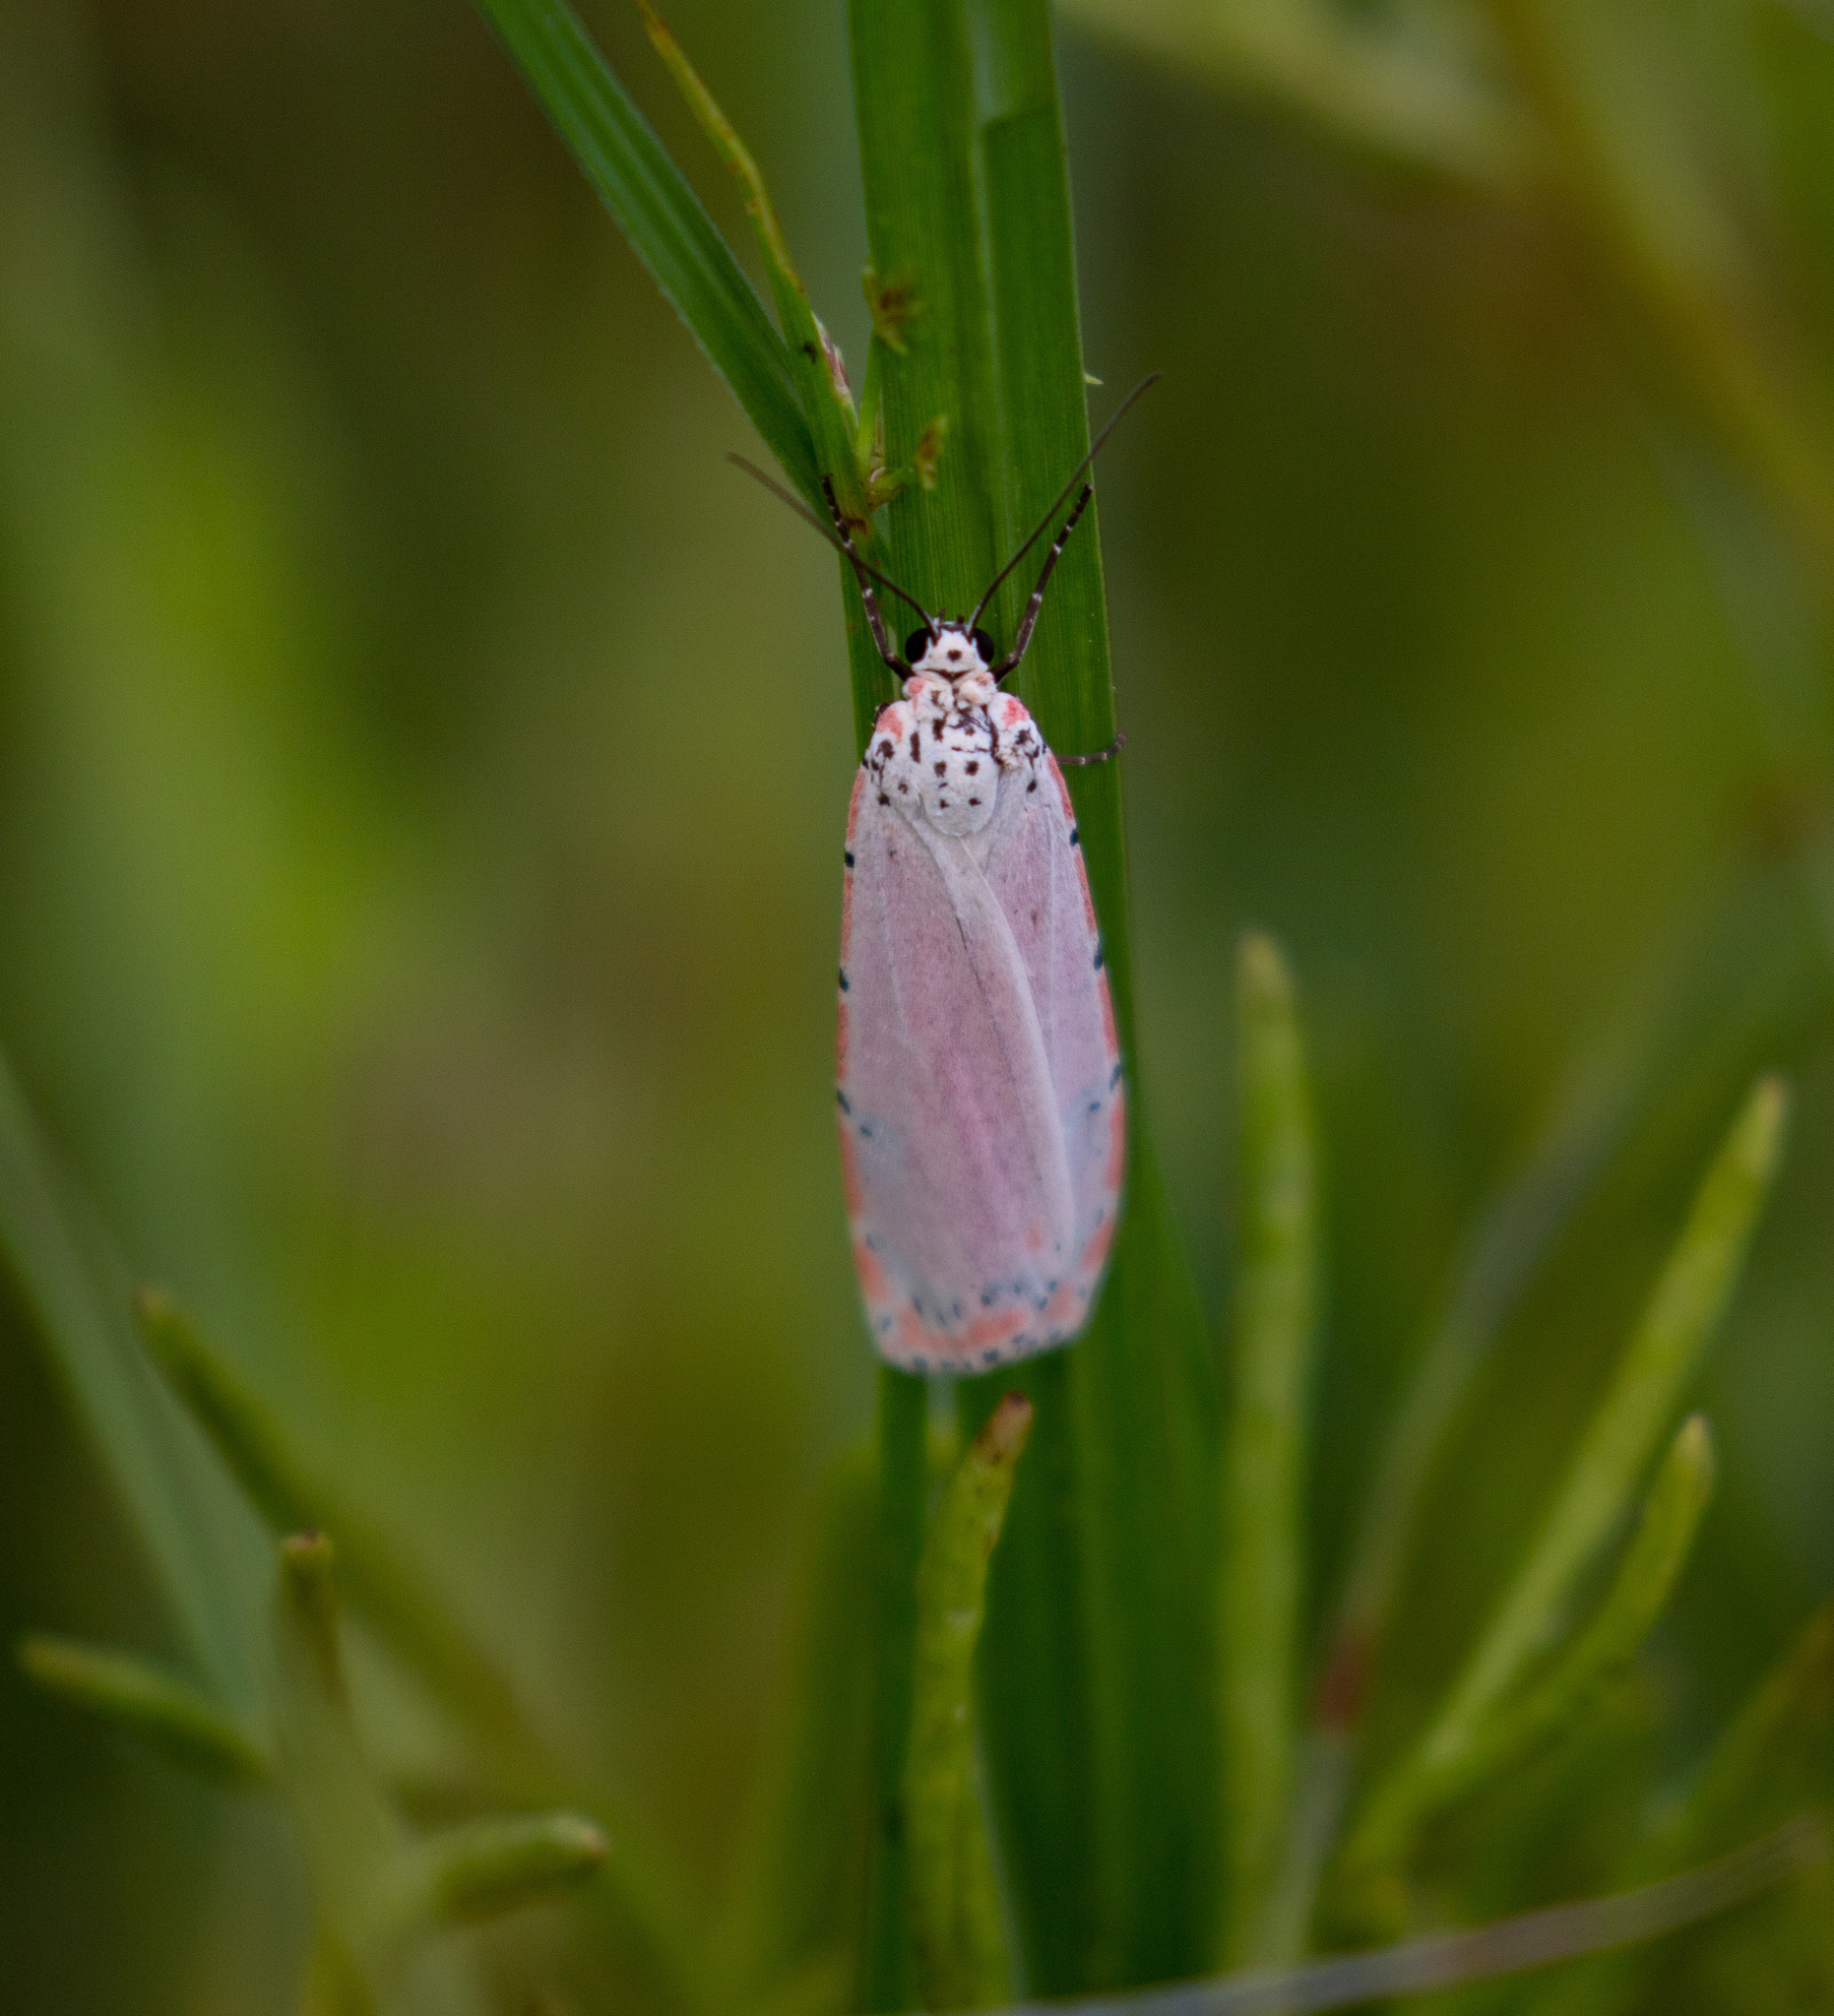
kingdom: Animalia
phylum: Arthropoda
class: Insecta
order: Lepidoptera
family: Erebidae
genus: Utetheisa
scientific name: Utetheisa ornatrix
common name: Beautiful utetheisa
